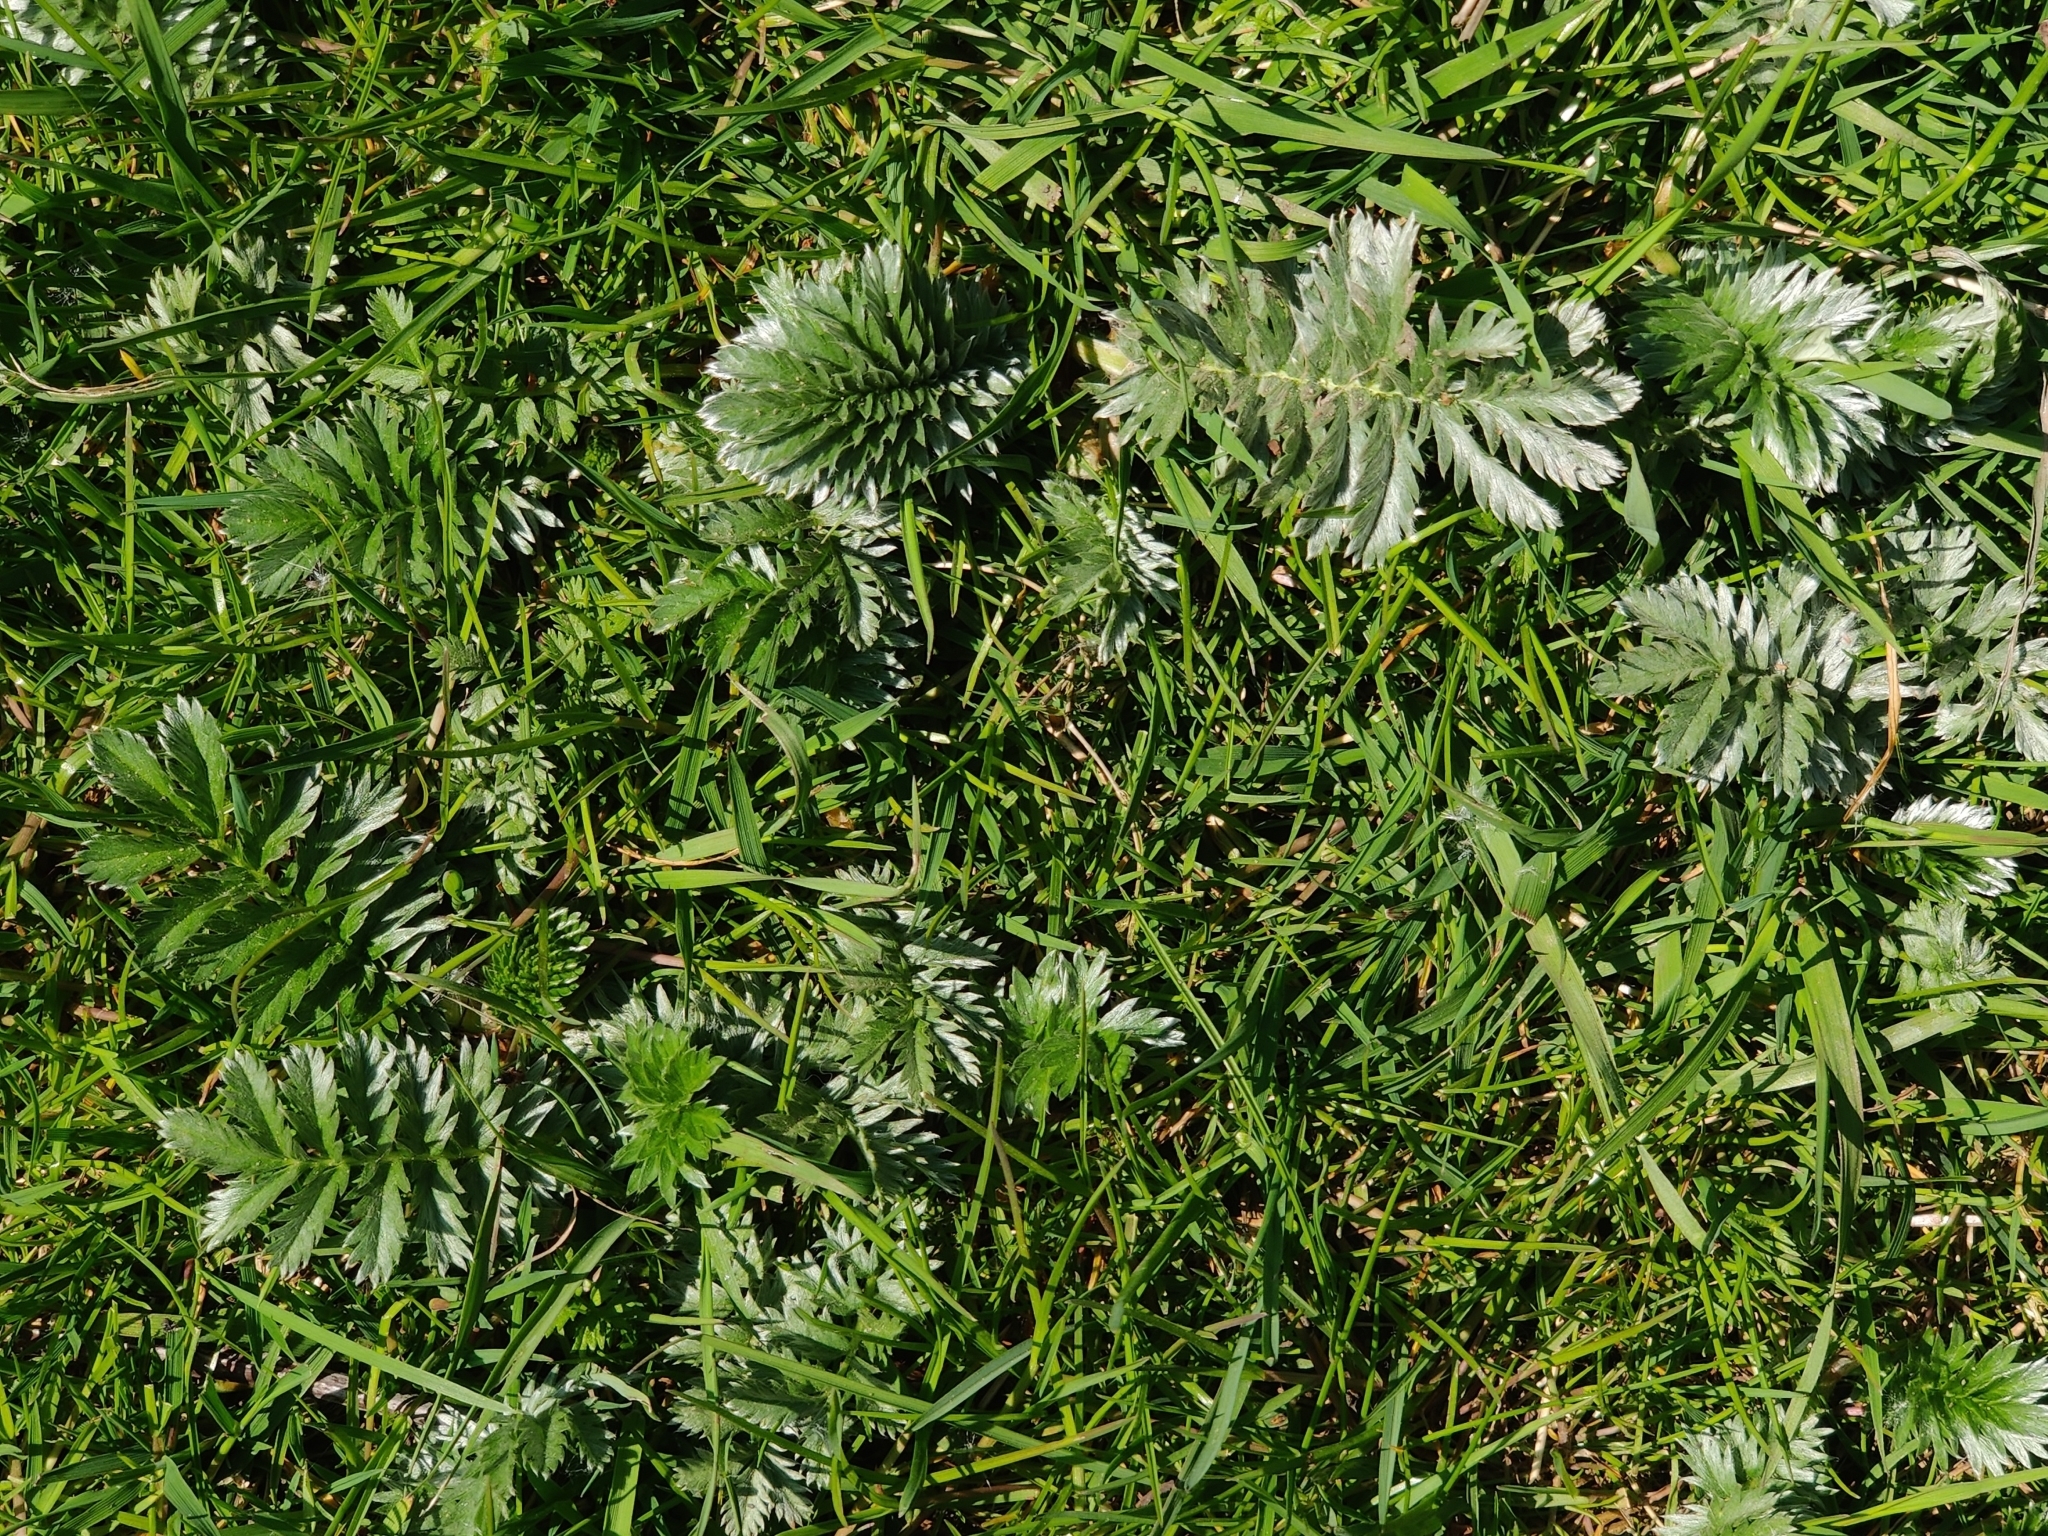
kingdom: Plantae
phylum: Tracheophyta
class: Magnoliopsida
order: Rosales
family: Rosaceae
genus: Argentina
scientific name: Argentina anserina
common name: Common silverweed
